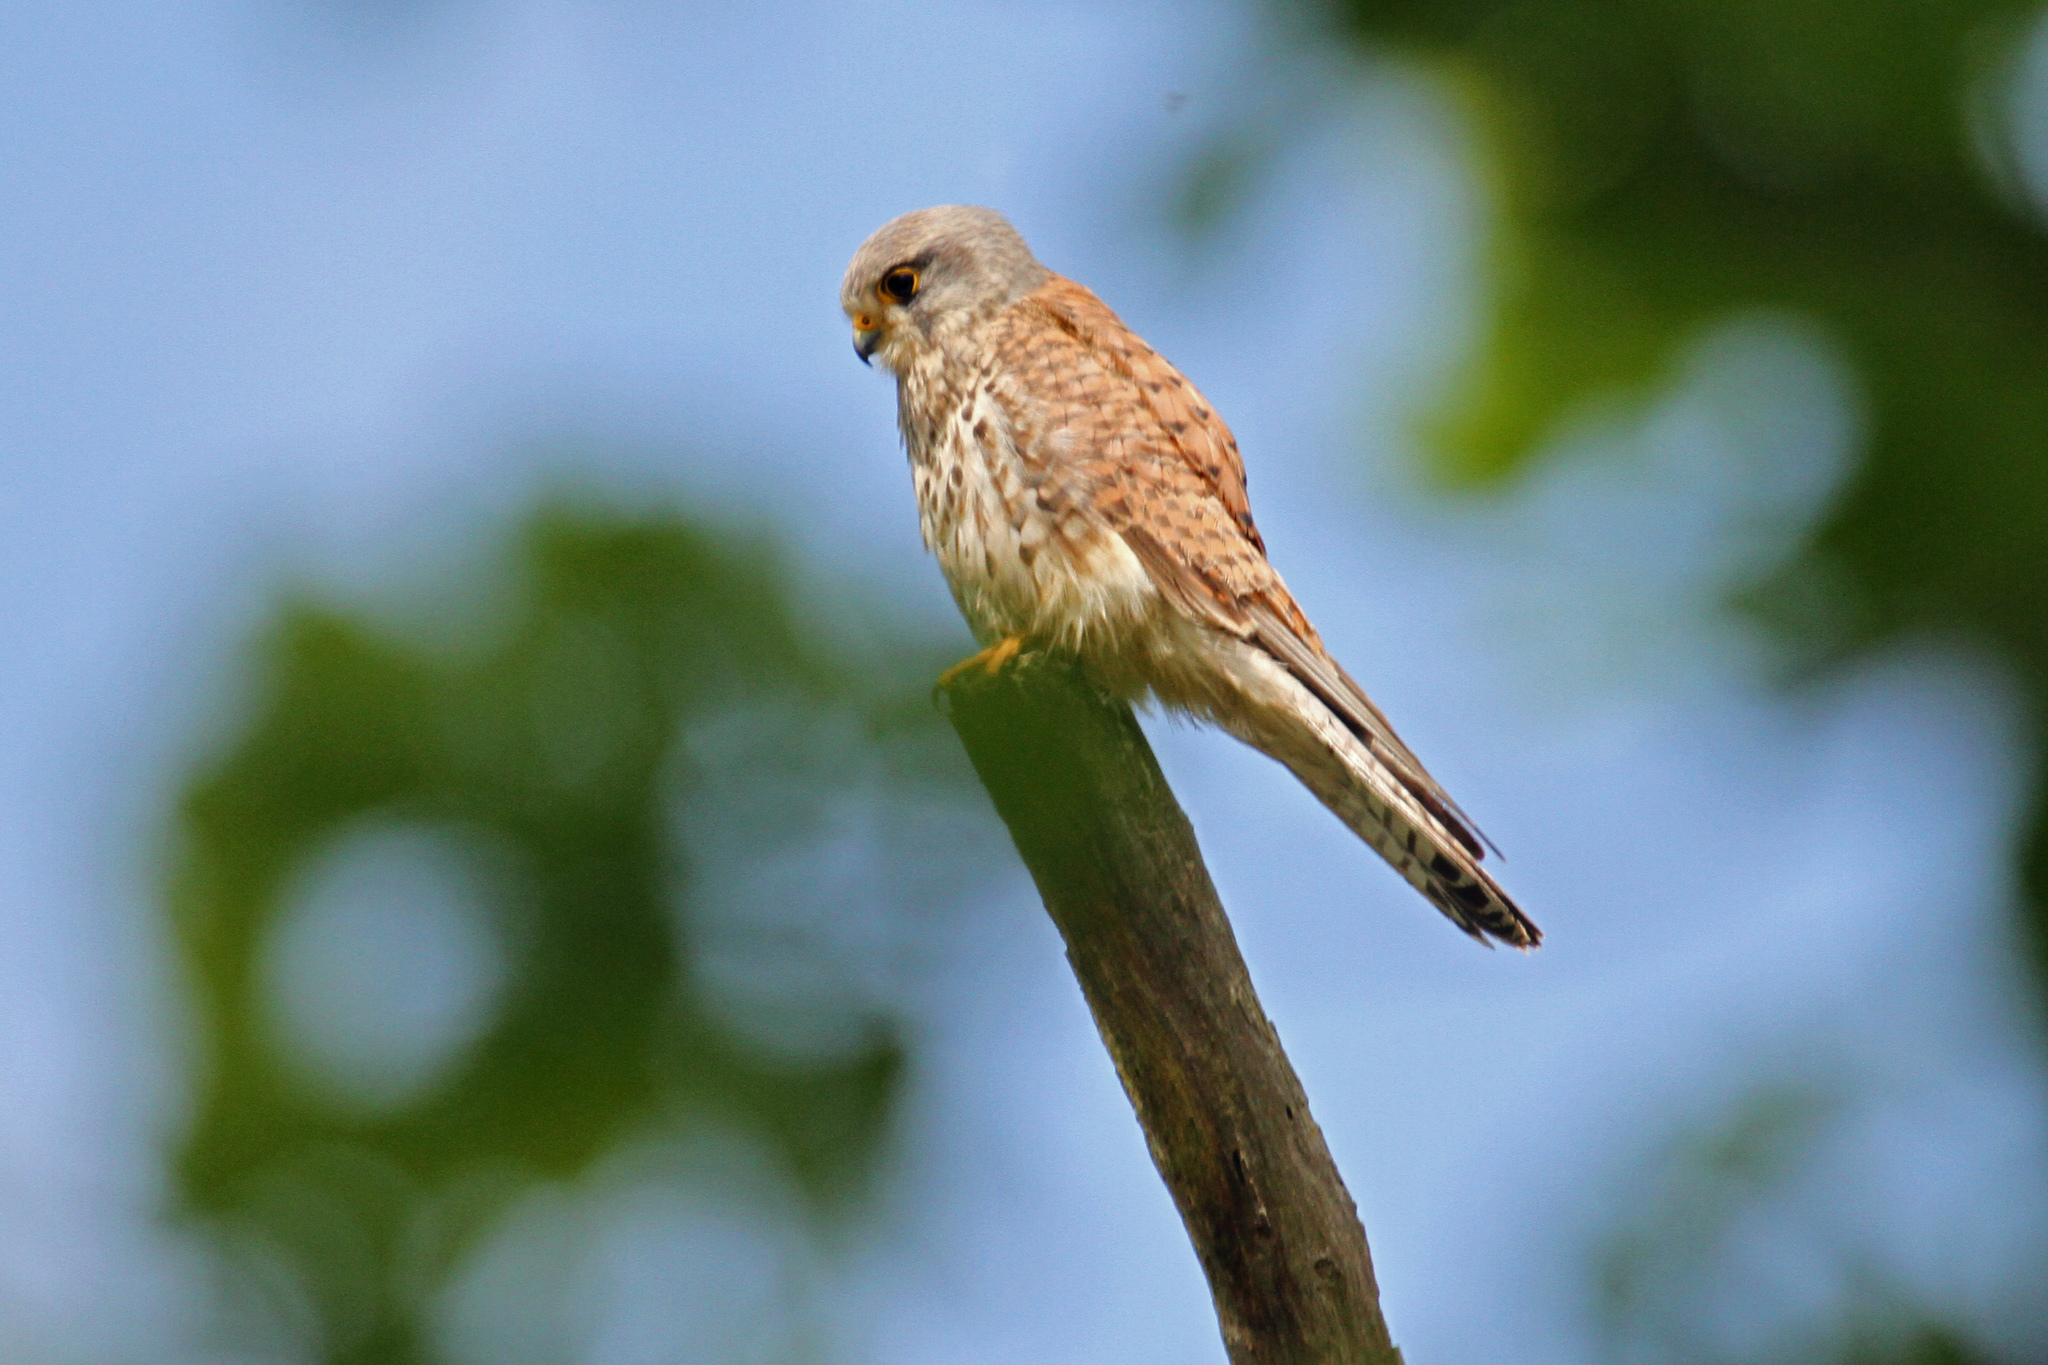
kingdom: Animalia
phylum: Chordata
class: Aves
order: Falconiformes
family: Falconidae
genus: Falco
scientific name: Falco tinnunculus
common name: Common kestrel
